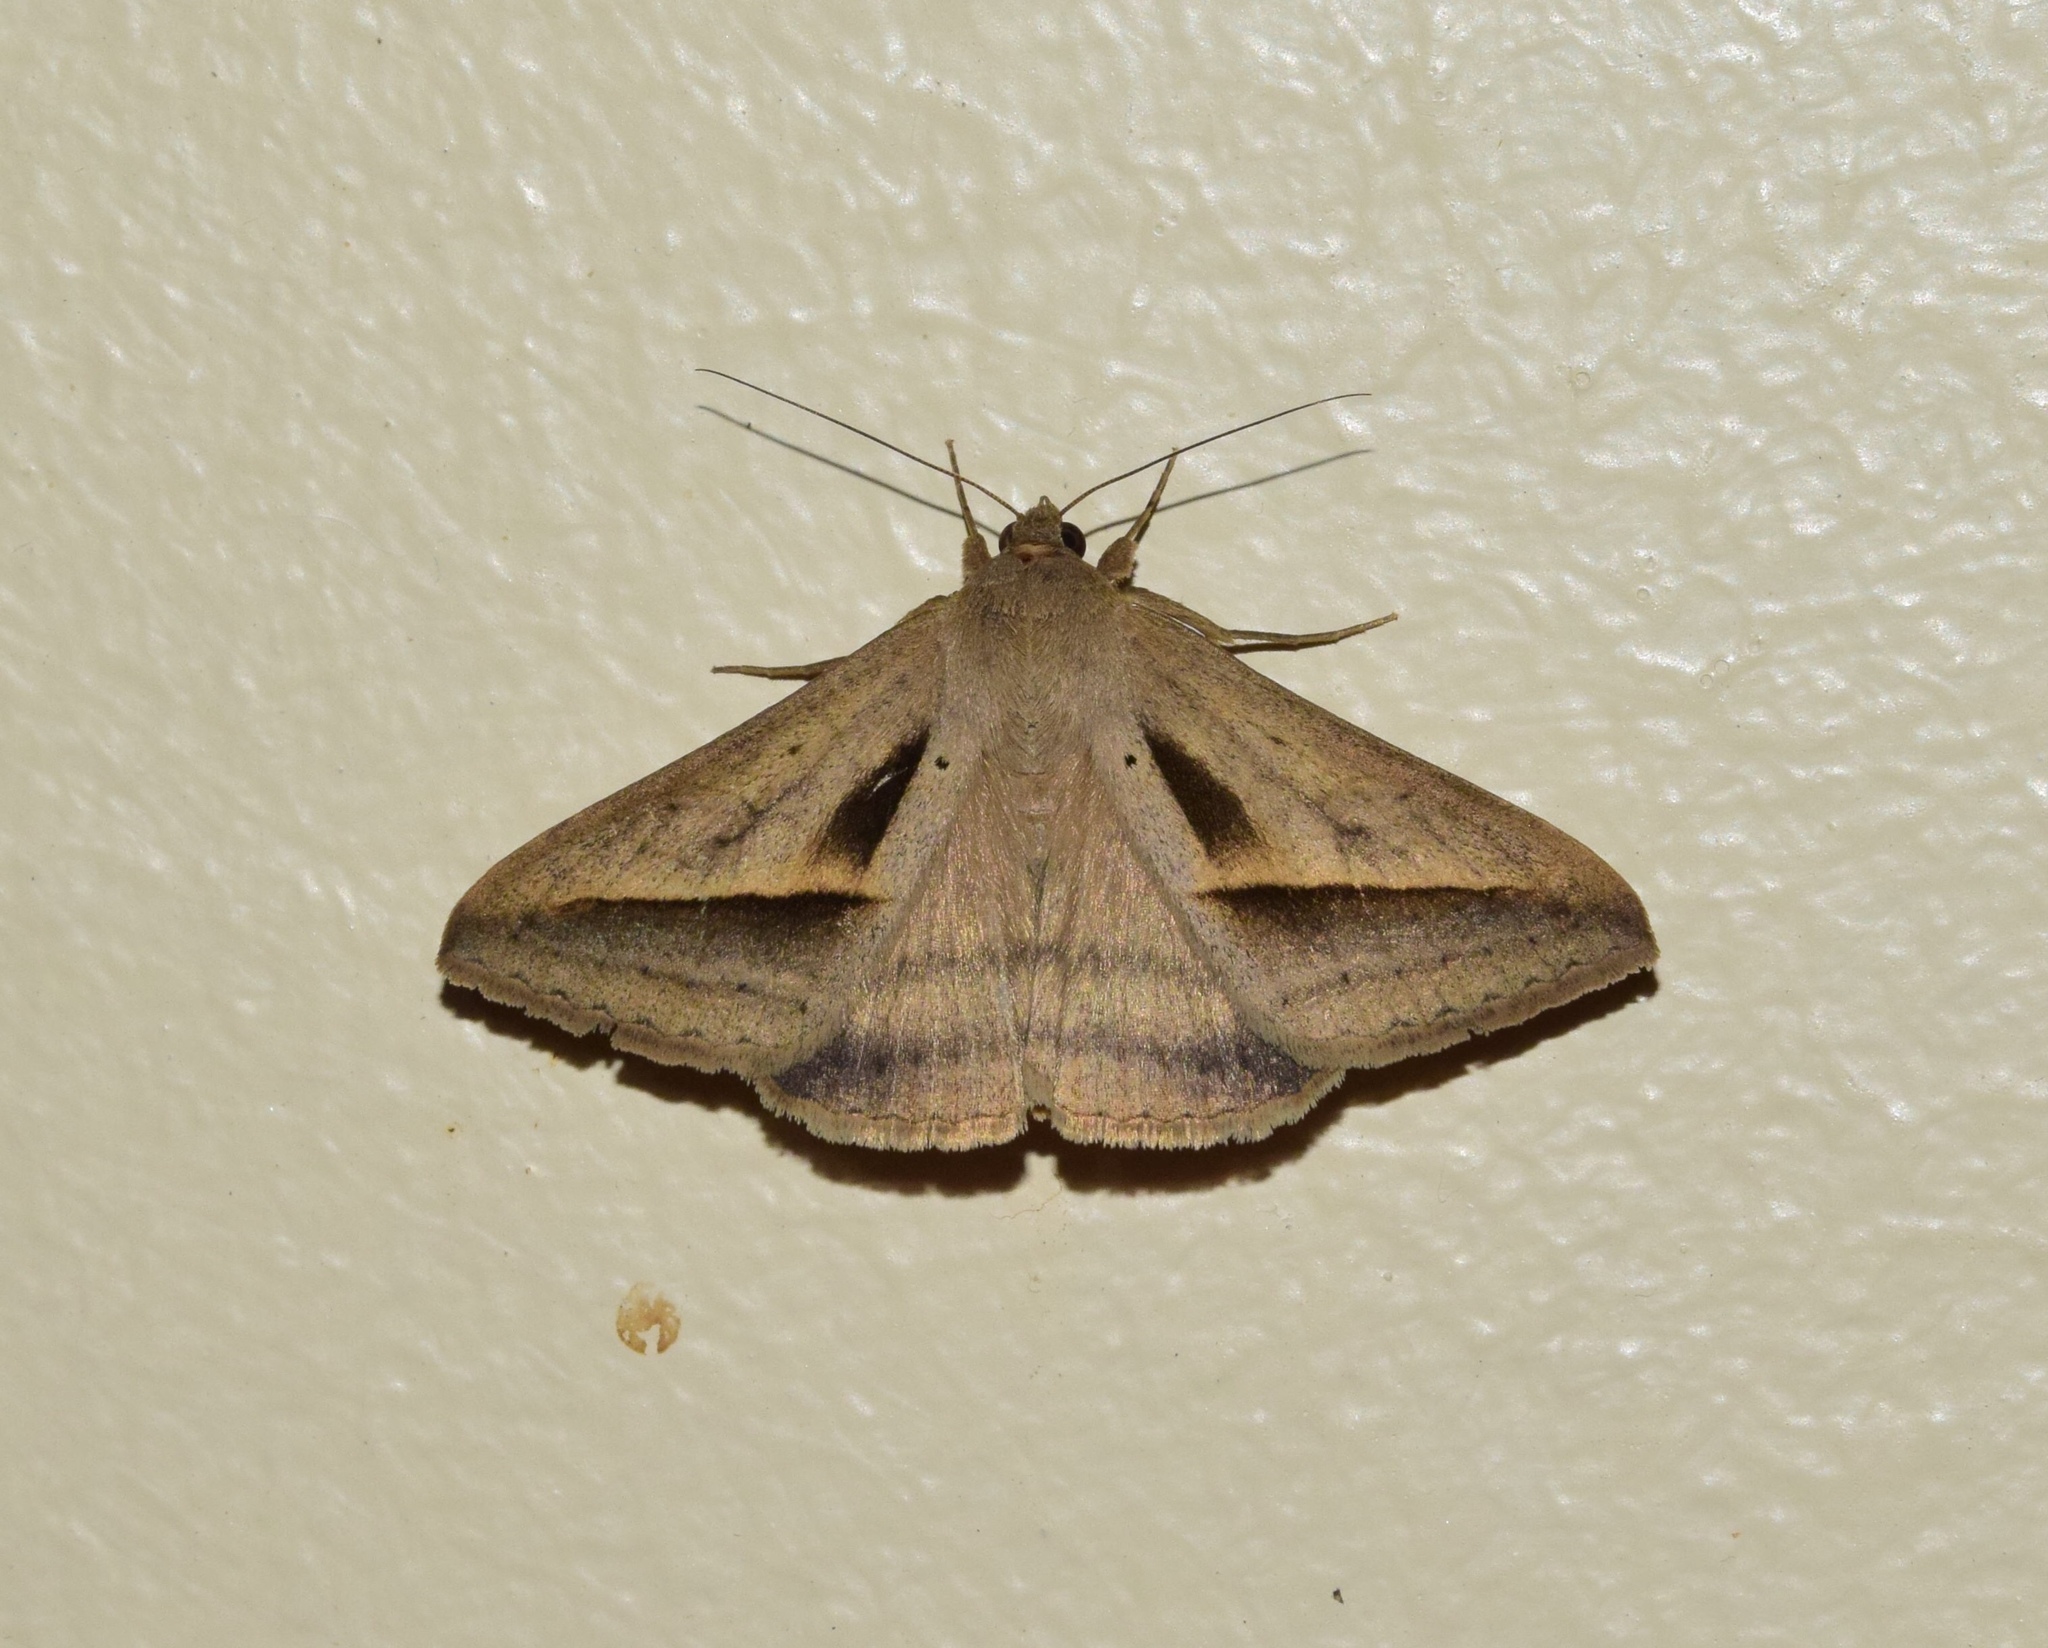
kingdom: Animalia
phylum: Arthropoda
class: Insecta
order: Lepidoptera
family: Erebidae
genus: Mocis
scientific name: Mocis proverai
